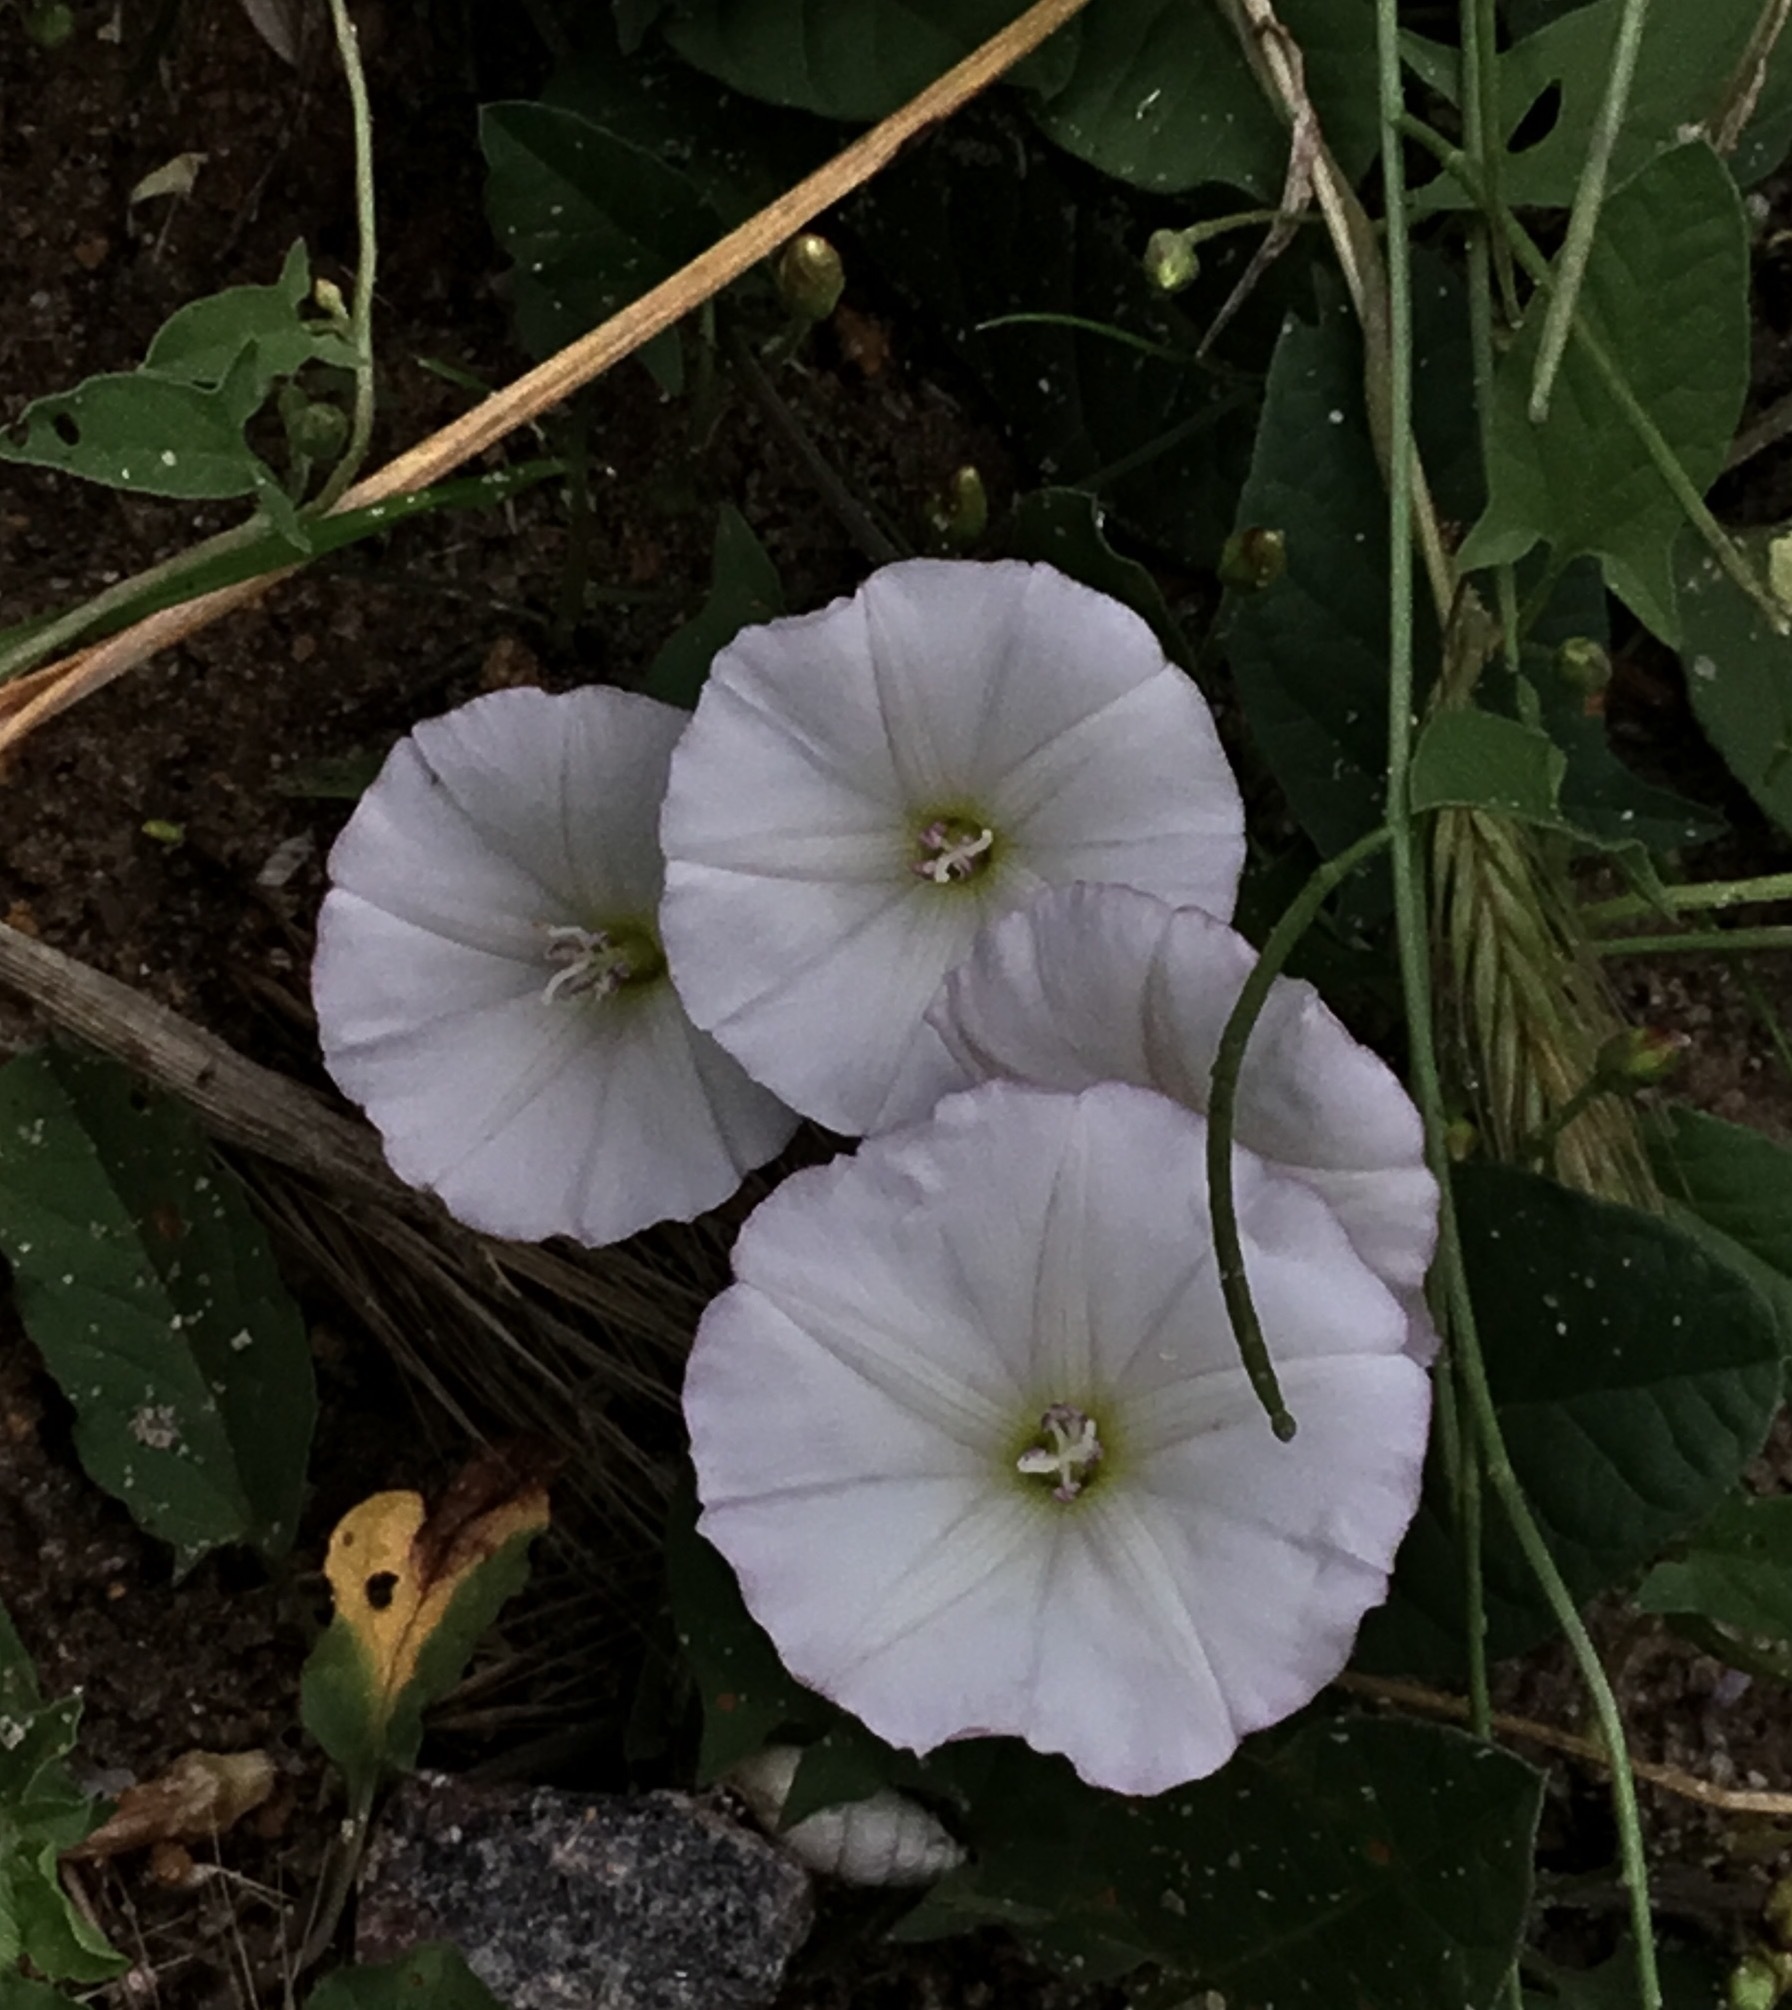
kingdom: Plantae
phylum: Tracheophyta
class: Magnoliopsida
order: Solanales
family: Convolvulaceae
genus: Convolvulus
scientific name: Convolvulus arvensis
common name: Field bindweed
